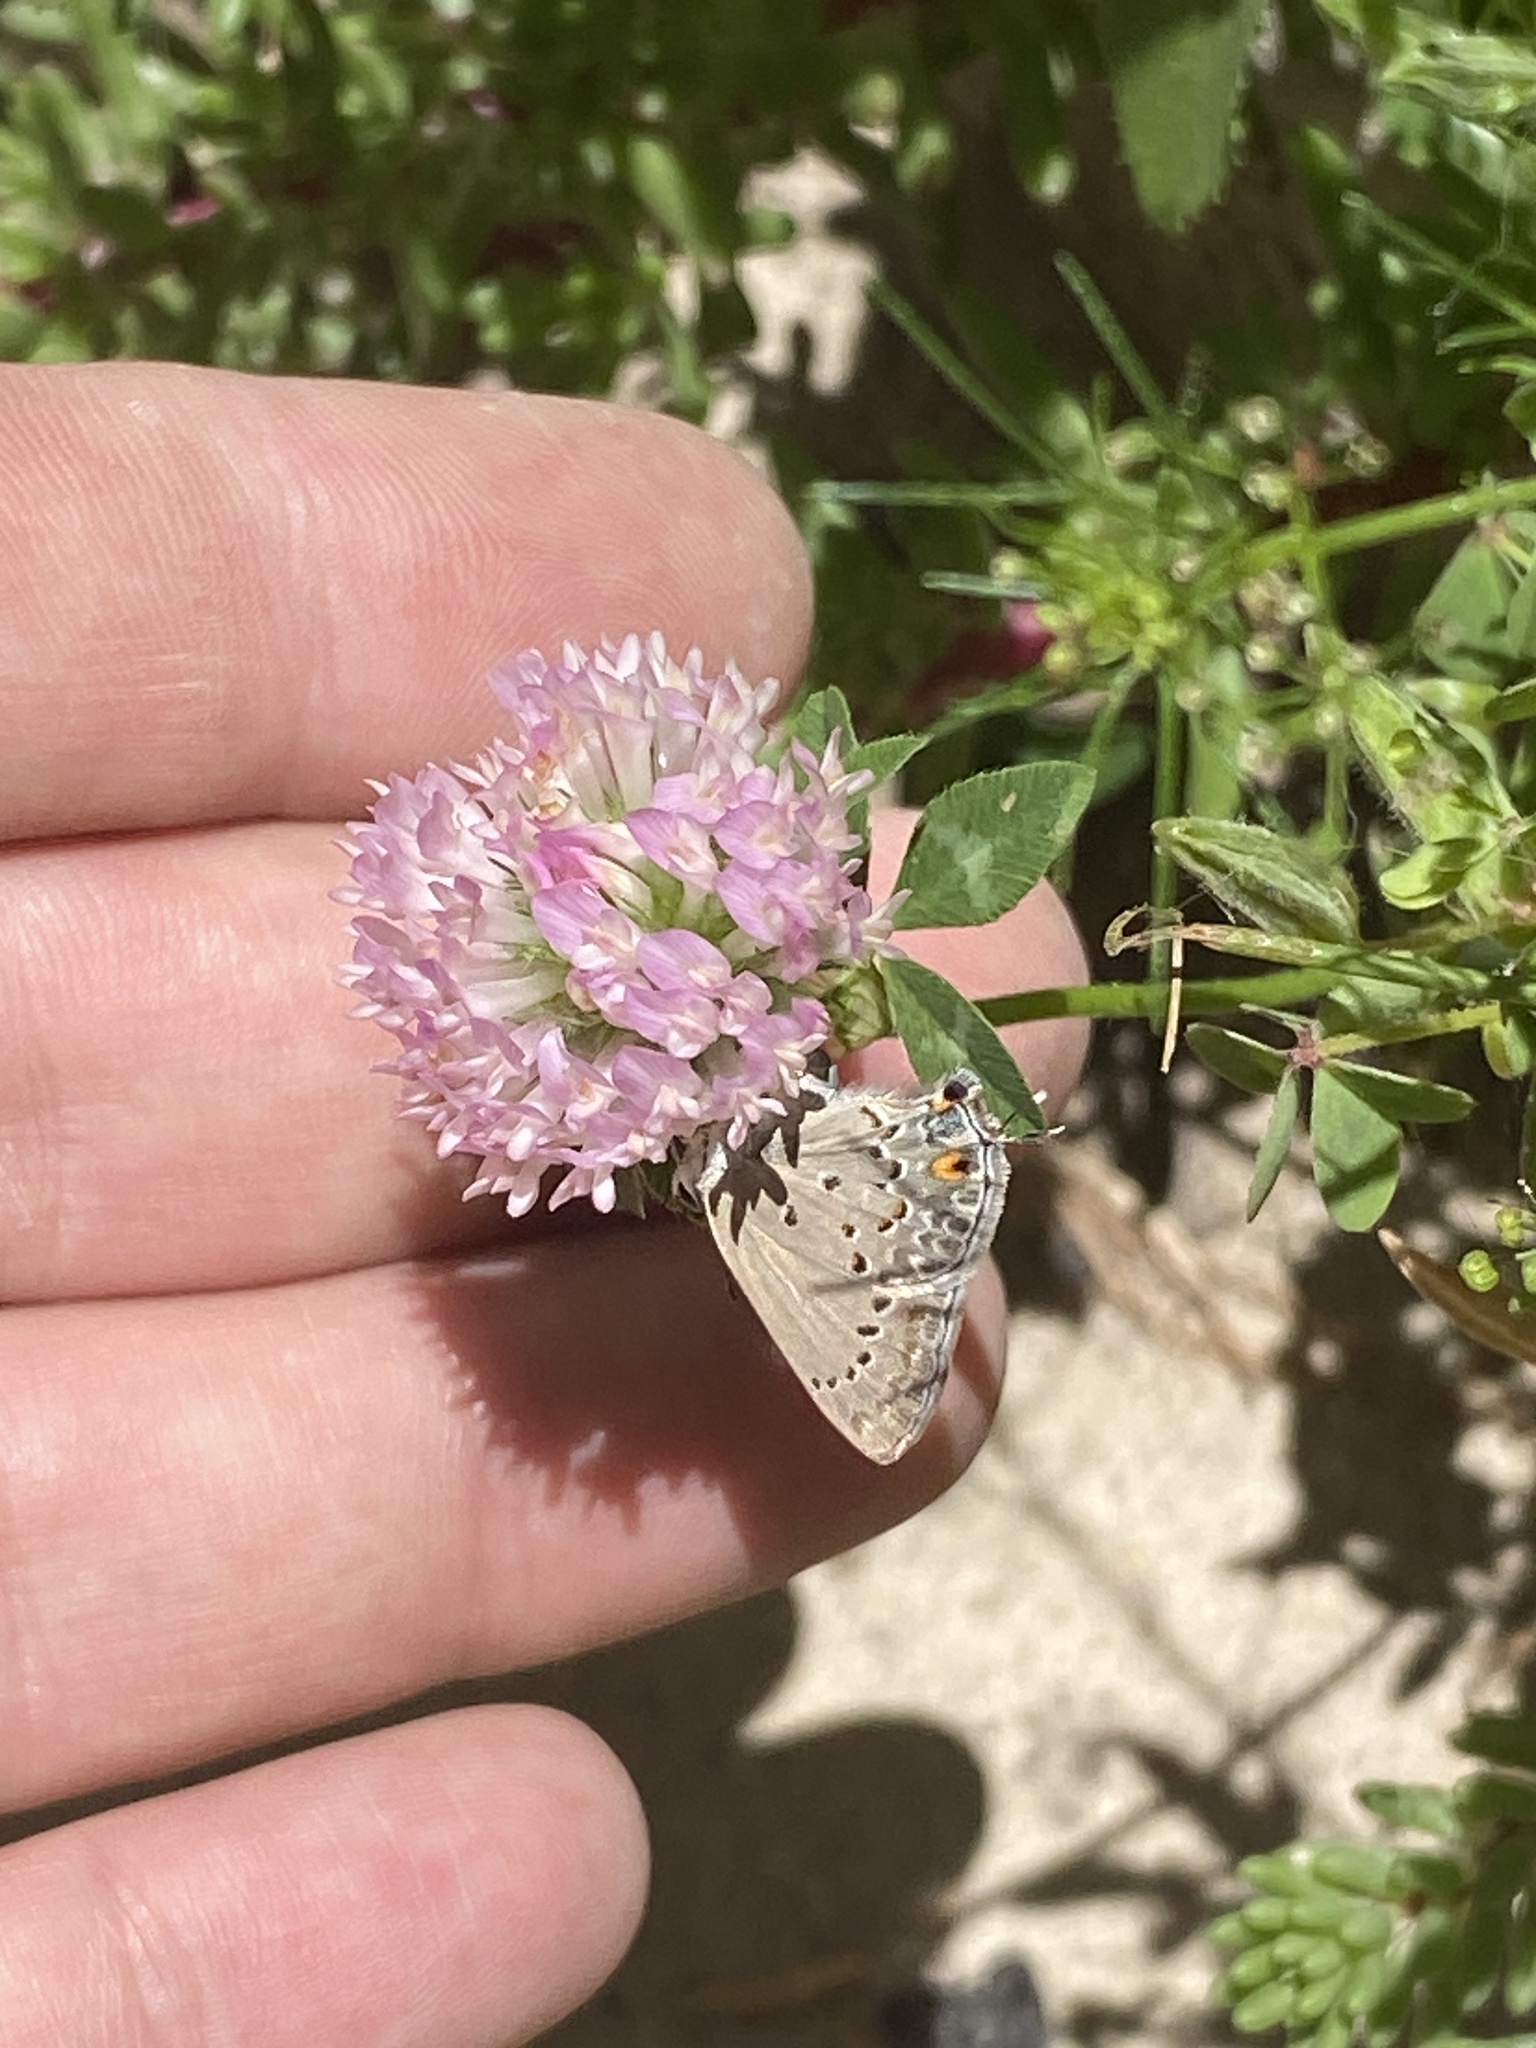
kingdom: Animalia
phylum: Arthropoda
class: Insecta
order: Lepidoptera
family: Lycaenidae
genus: Strymon
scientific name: Strymon eurytulus
